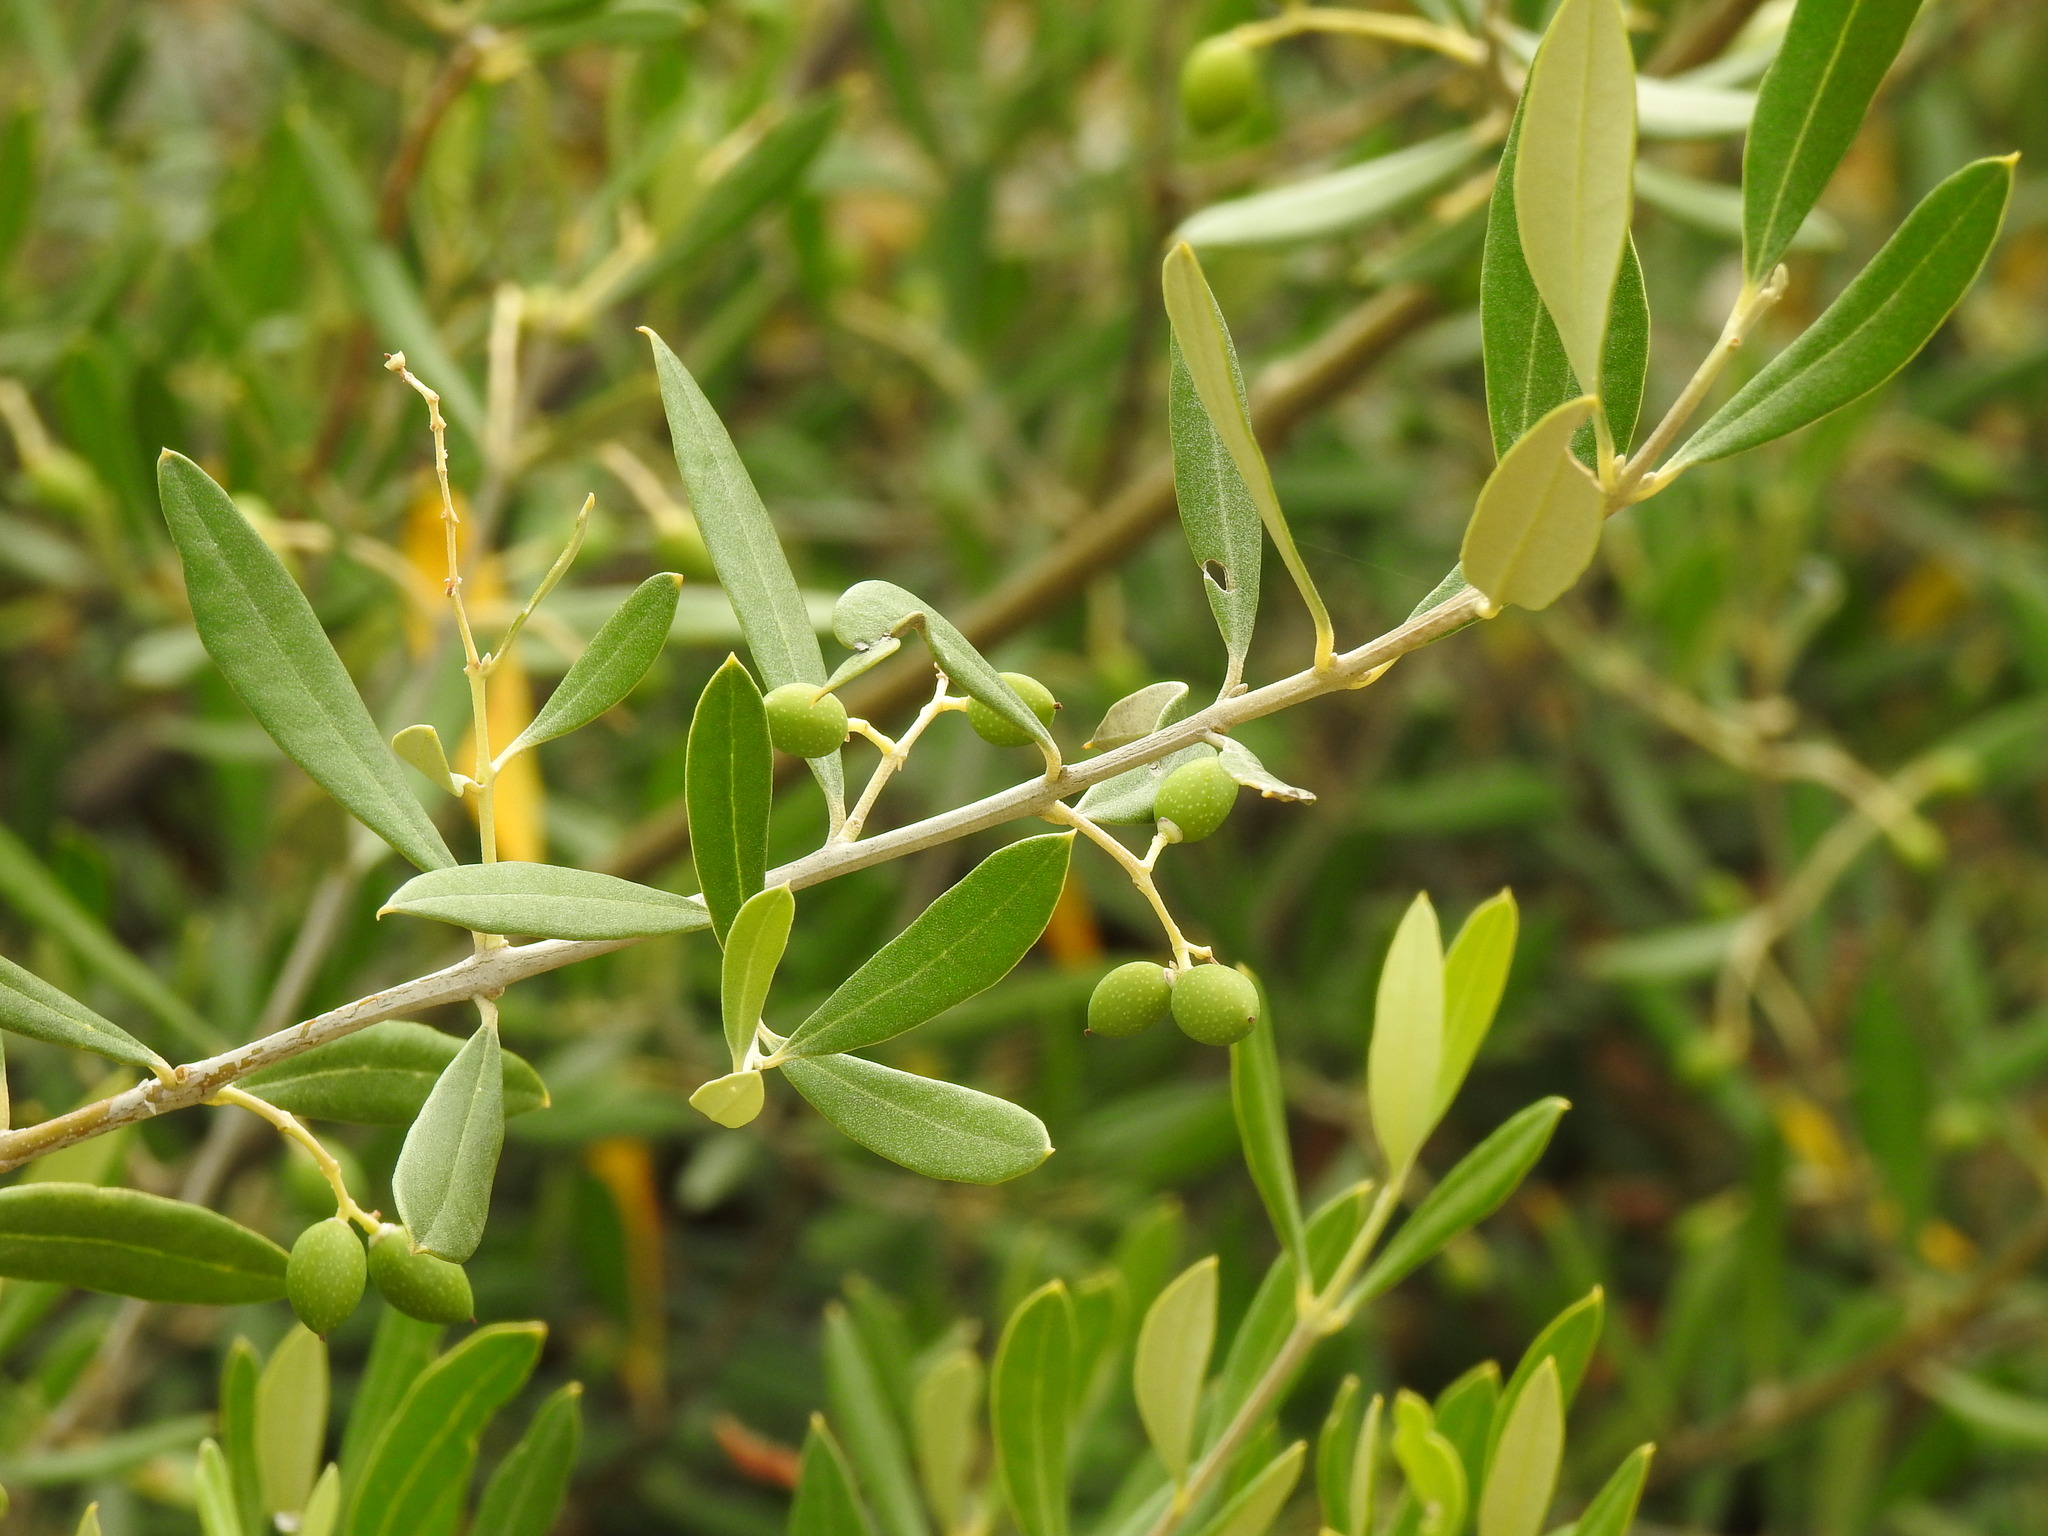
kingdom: Plantae
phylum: Tracheophyta
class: Magnoliopsida
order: Lamiales
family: Oleaceae
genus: Olea
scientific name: Olea europaea
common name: Olive
